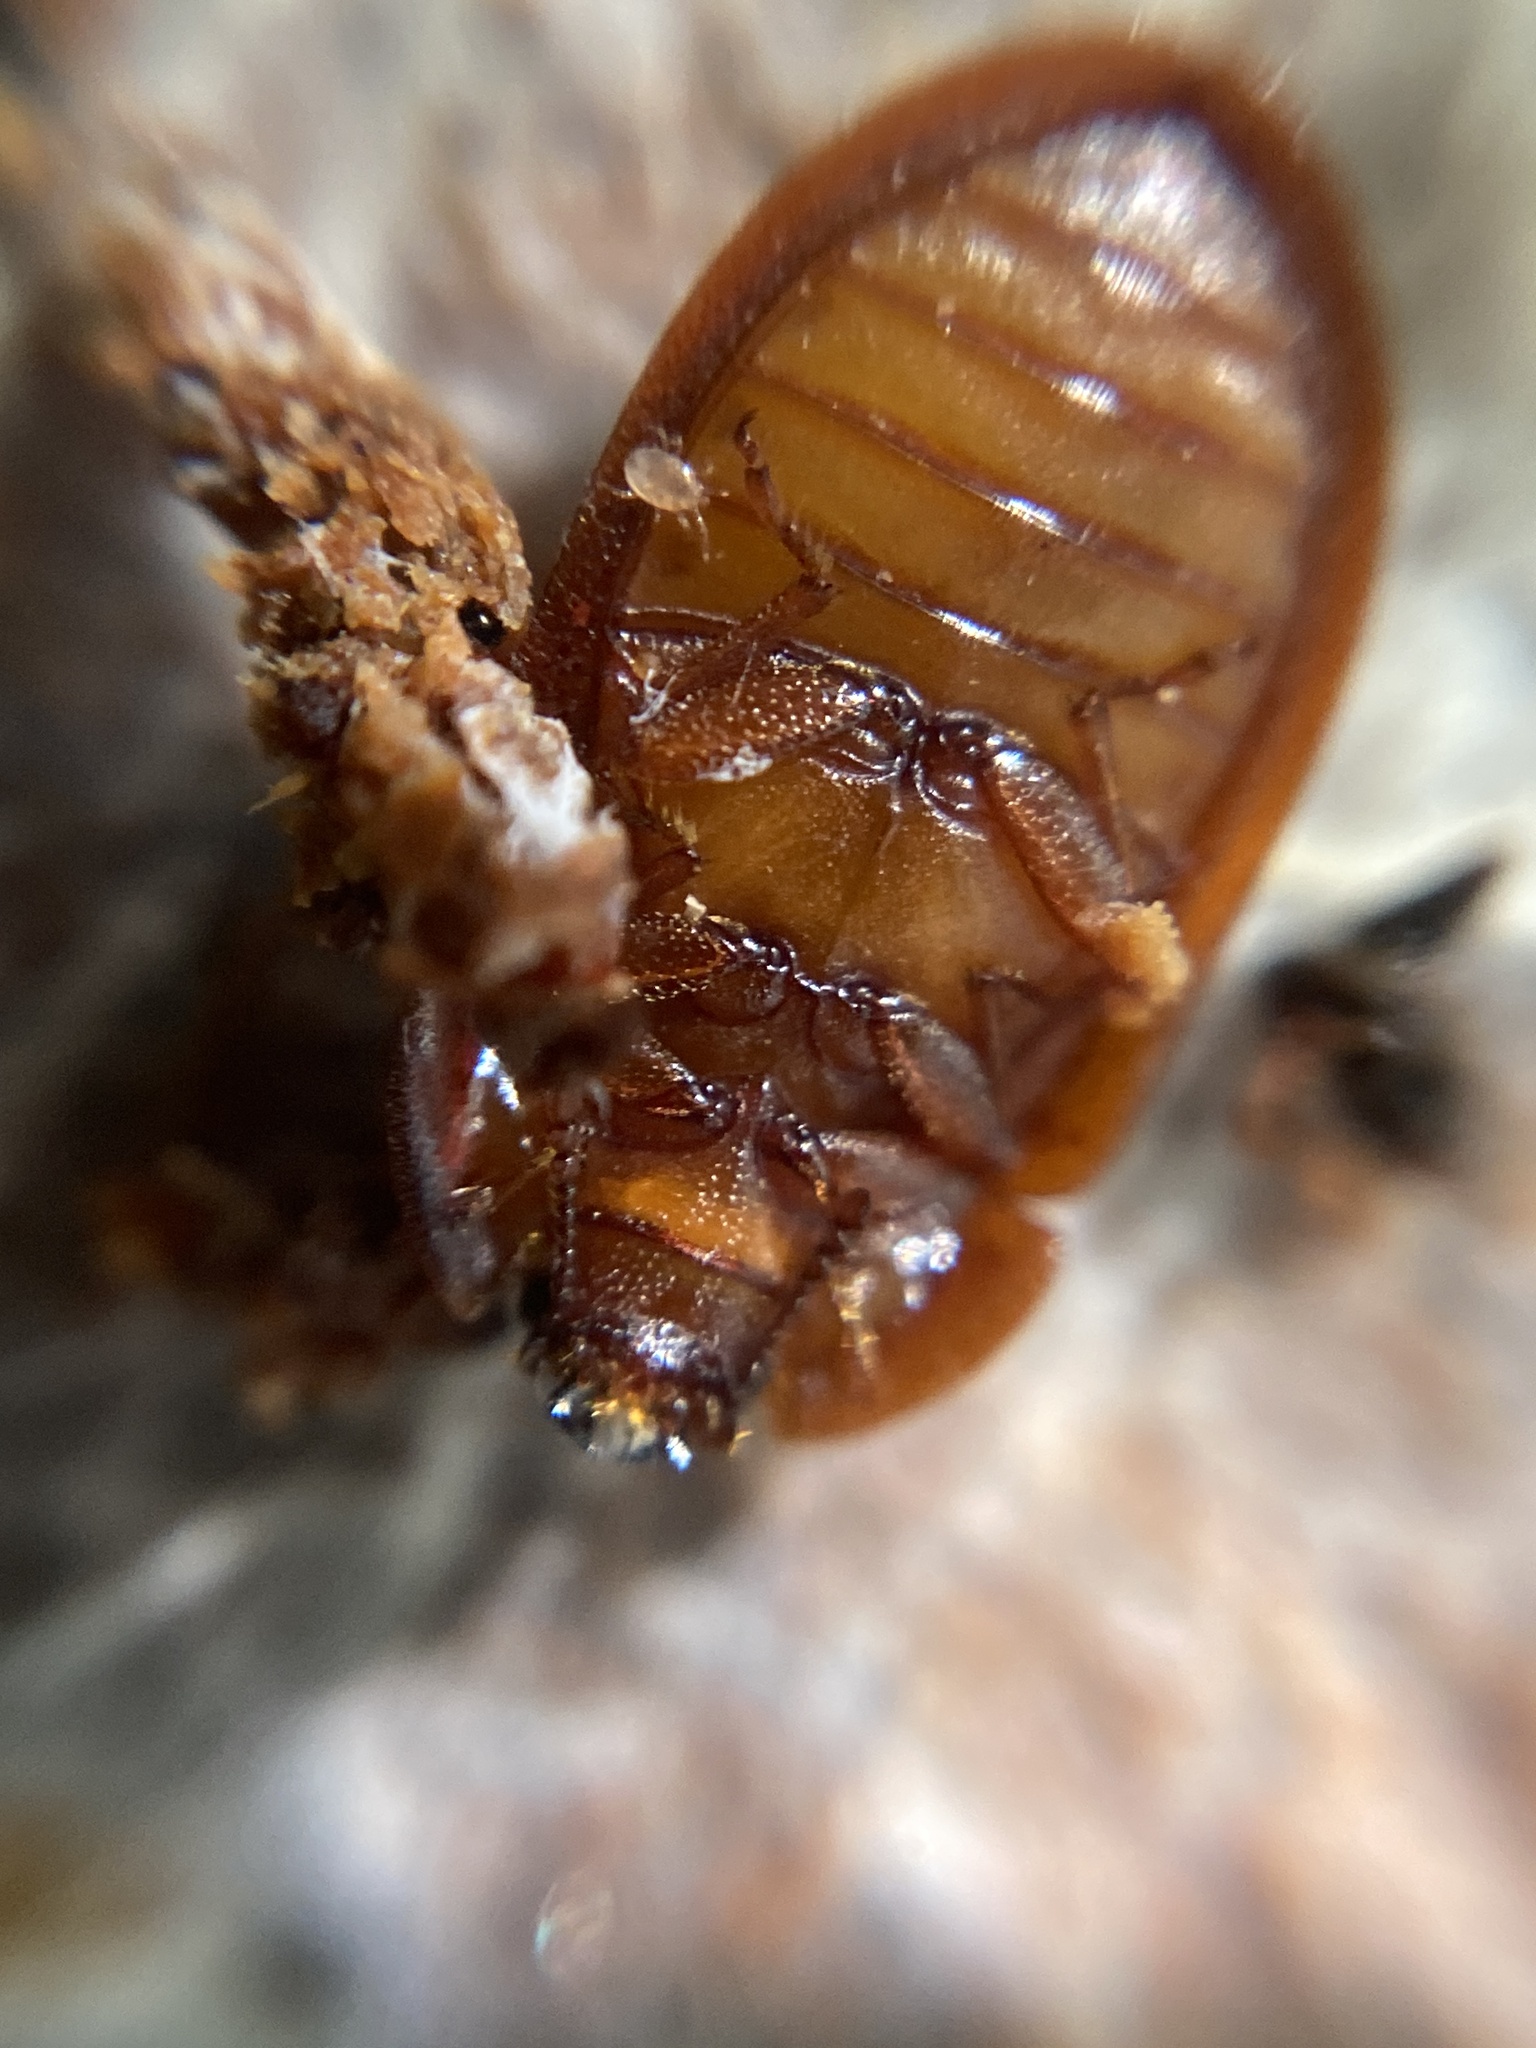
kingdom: Animalia
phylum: Arthropoda
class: Insecta
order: Coleoptera
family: Trogossitidae
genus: Peltis
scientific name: Peltis ferruginea
